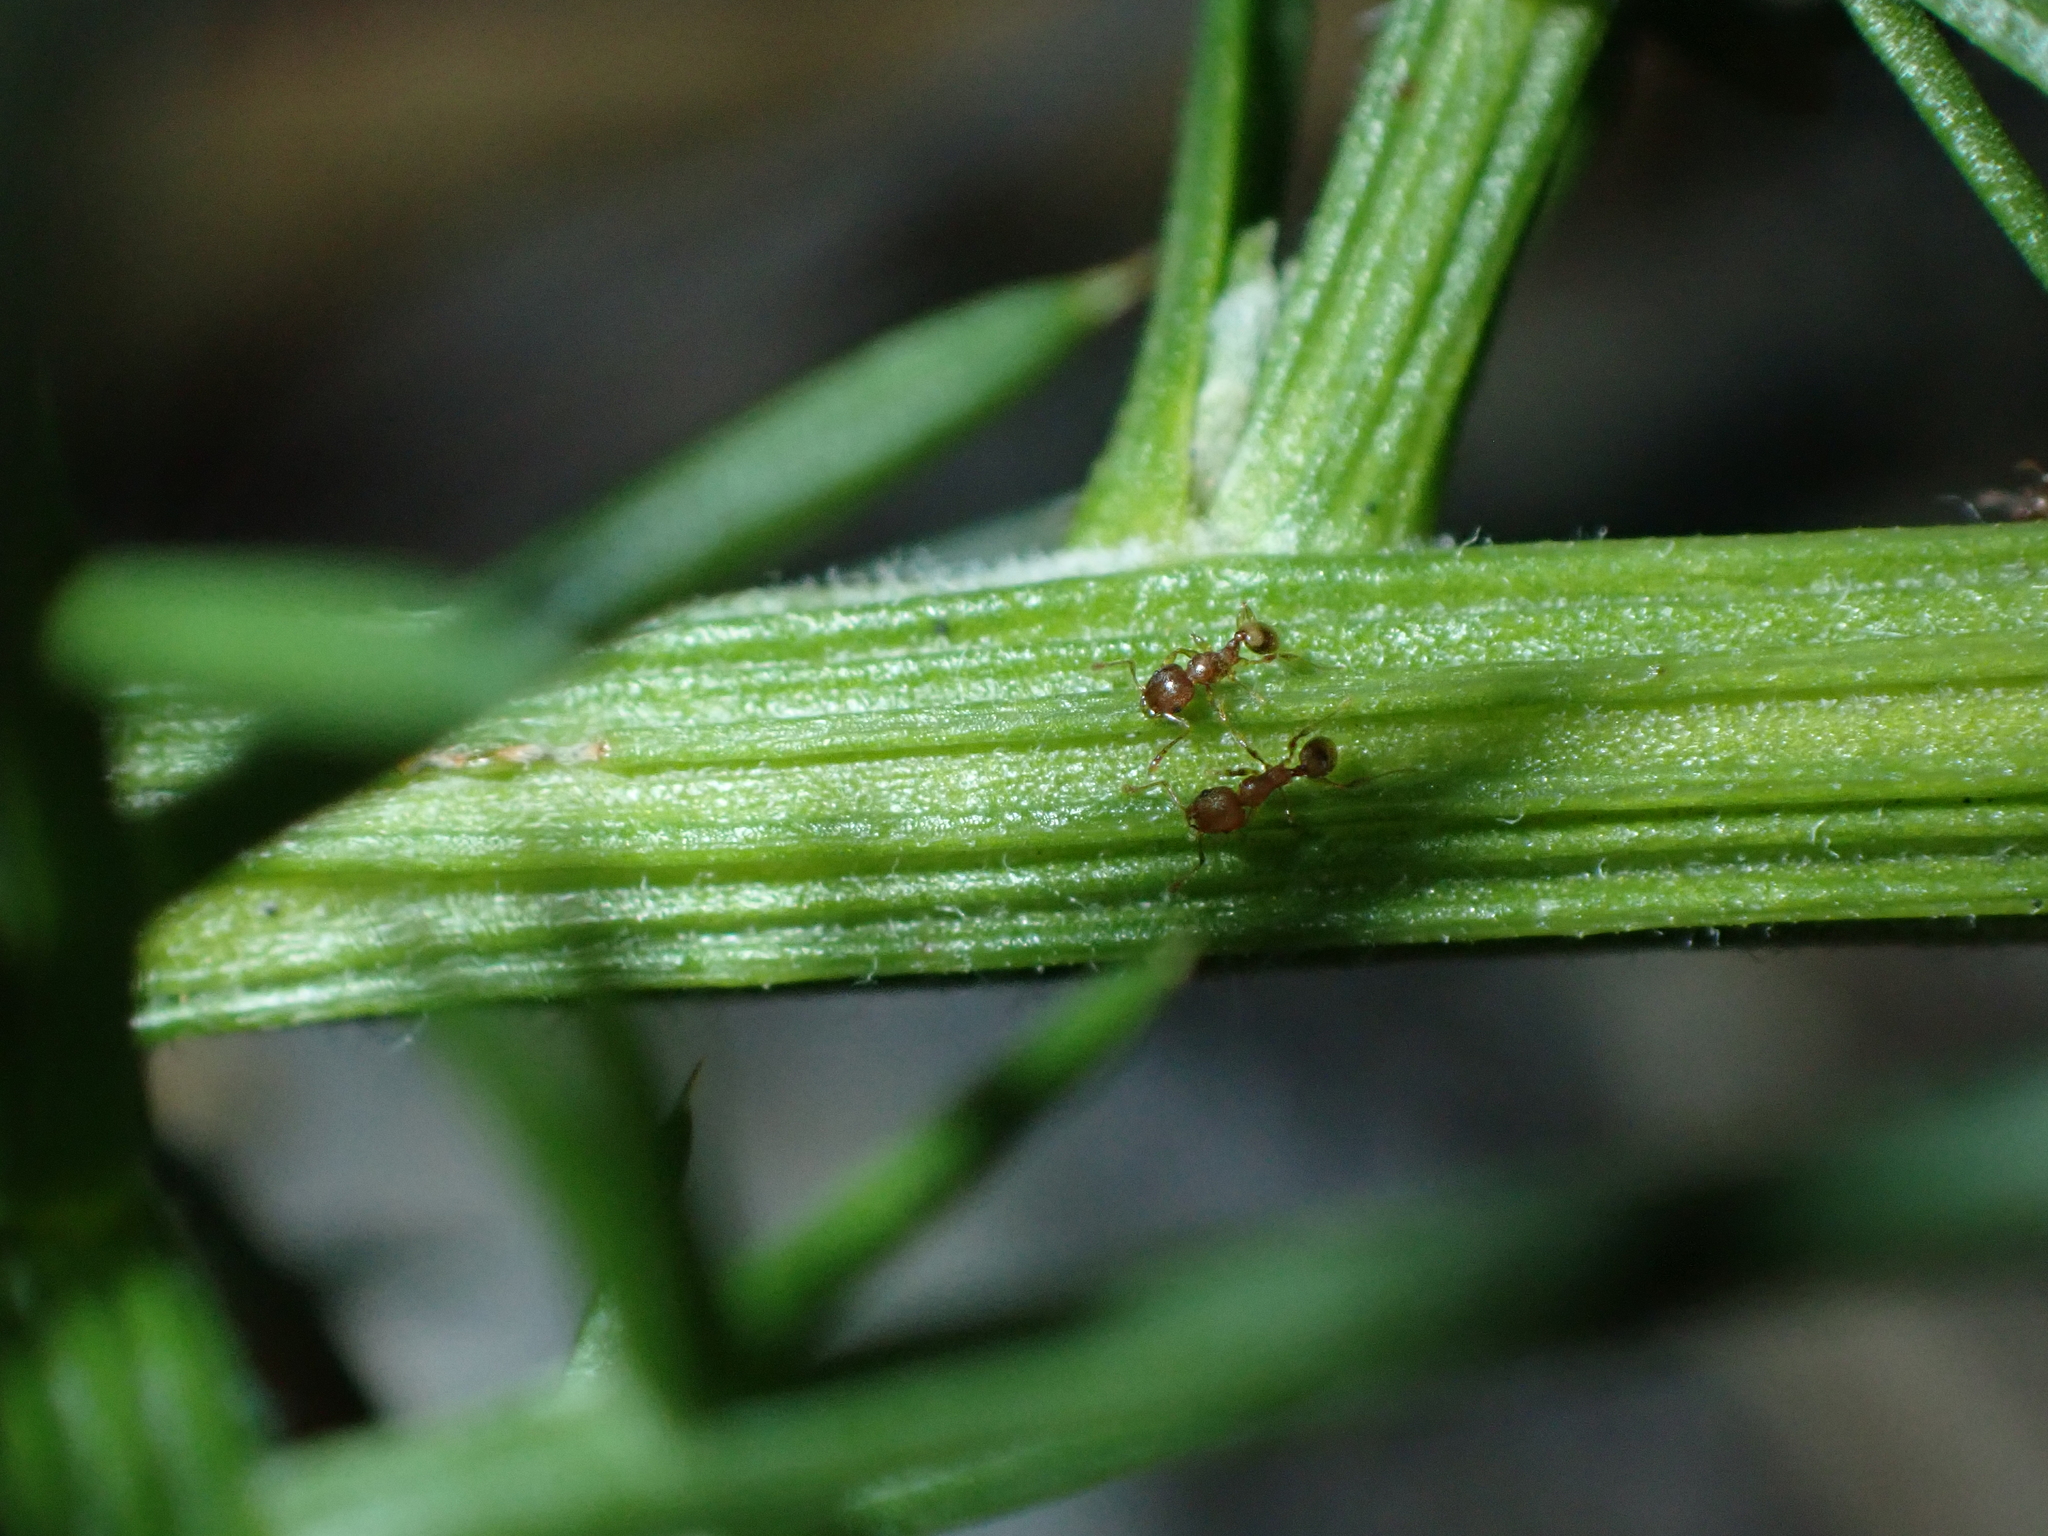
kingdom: Animalia
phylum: Arthropoda
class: Insecta
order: Hymenoptera
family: Formicidae
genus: Pheidole
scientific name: Pheidole rugosula
